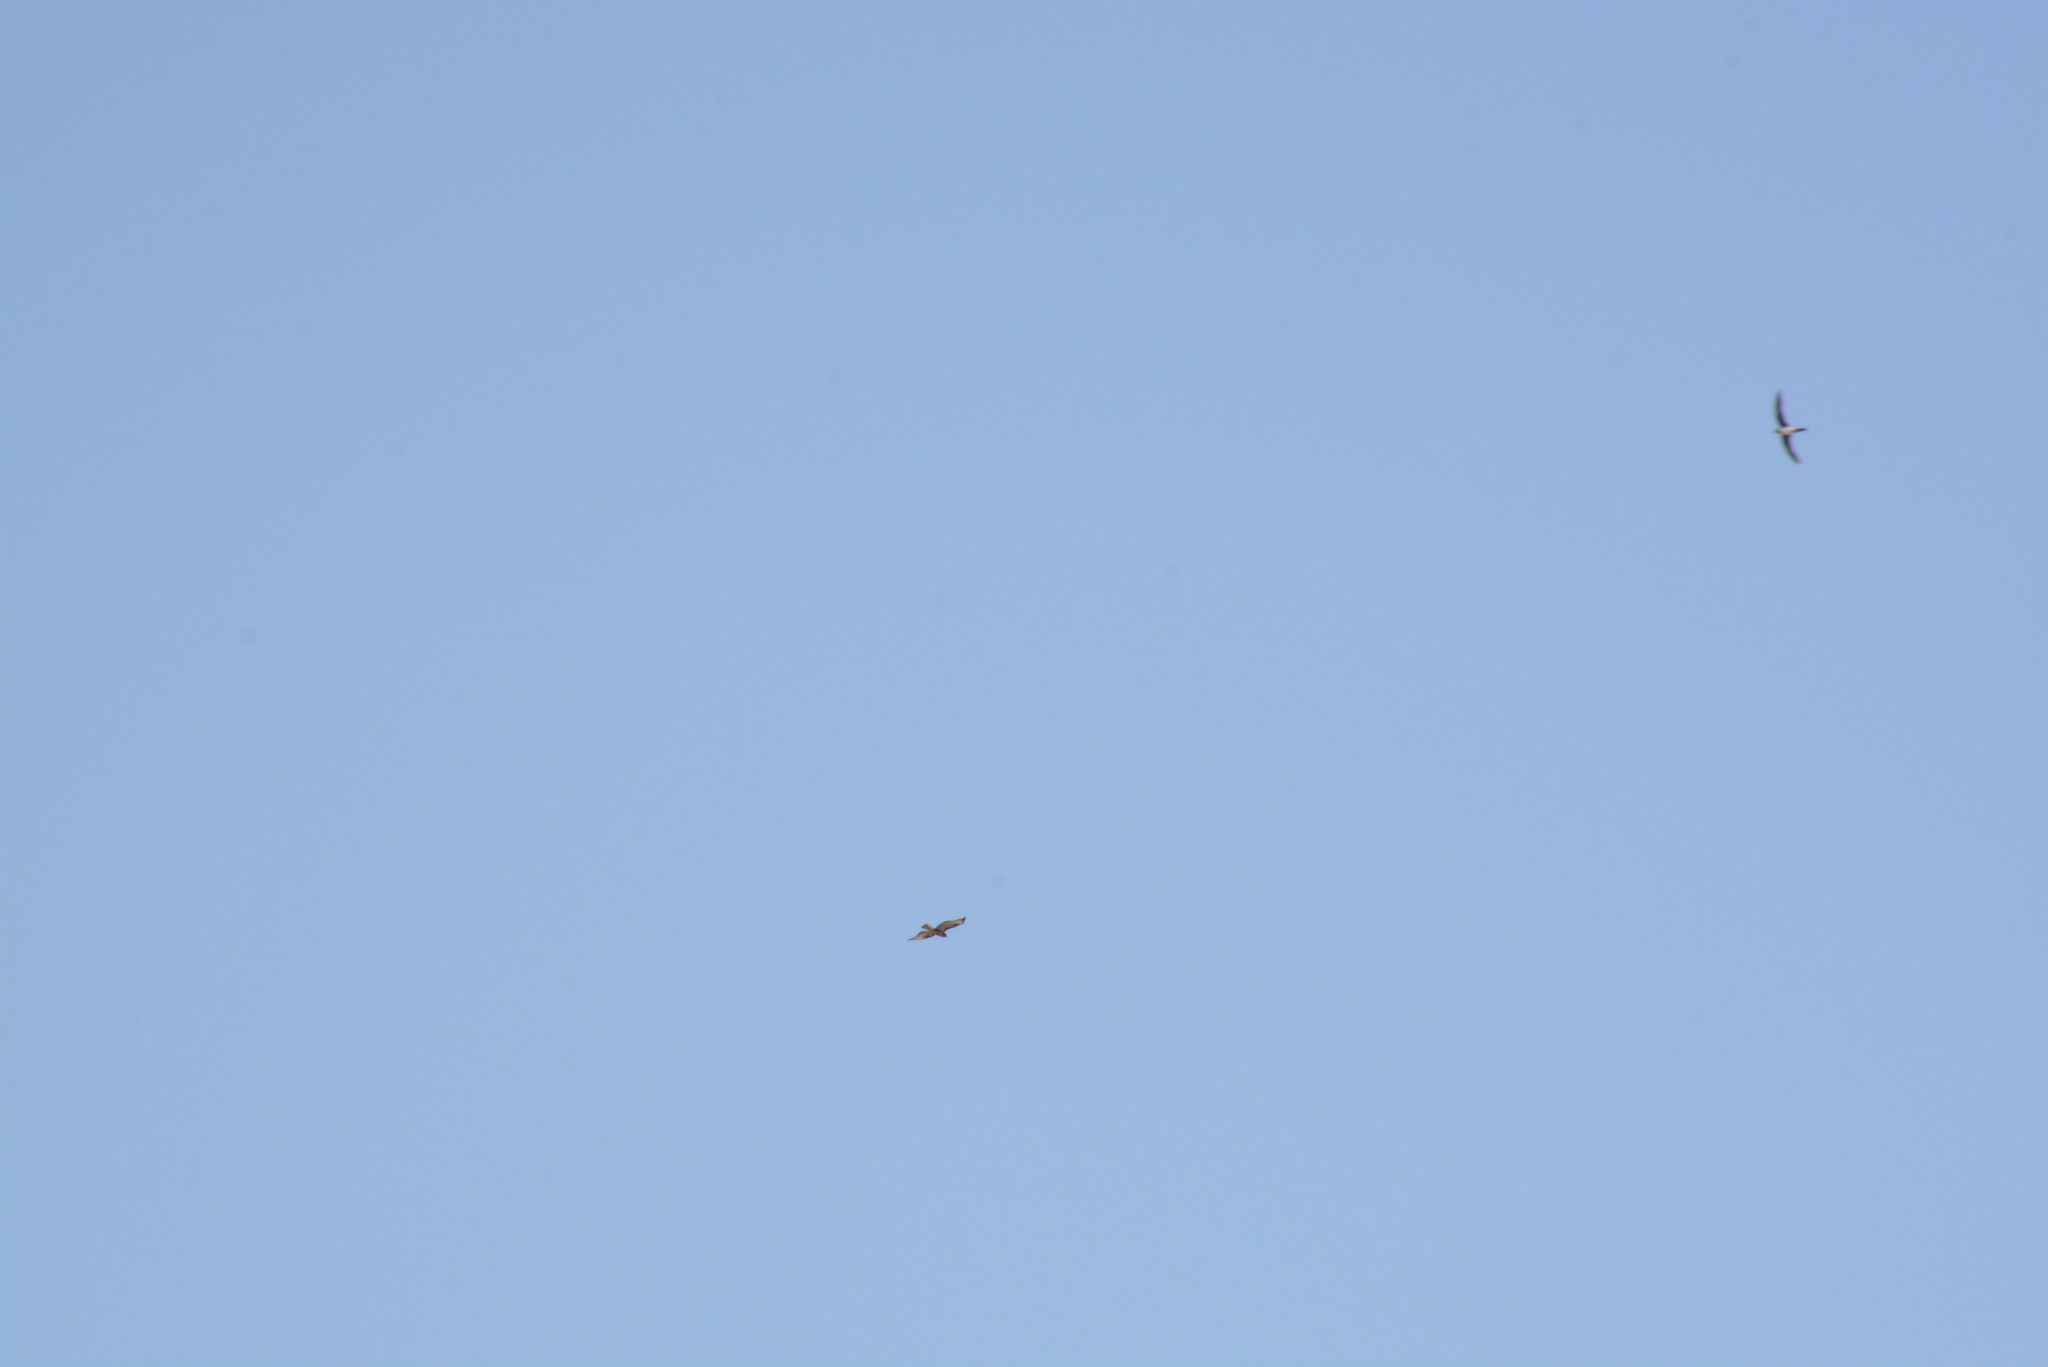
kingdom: Animalia
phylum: Chordata
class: Aves
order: Accipitriformes
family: Accipitridae
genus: Buteo
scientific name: Buteo buteo
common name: Common buzzard
